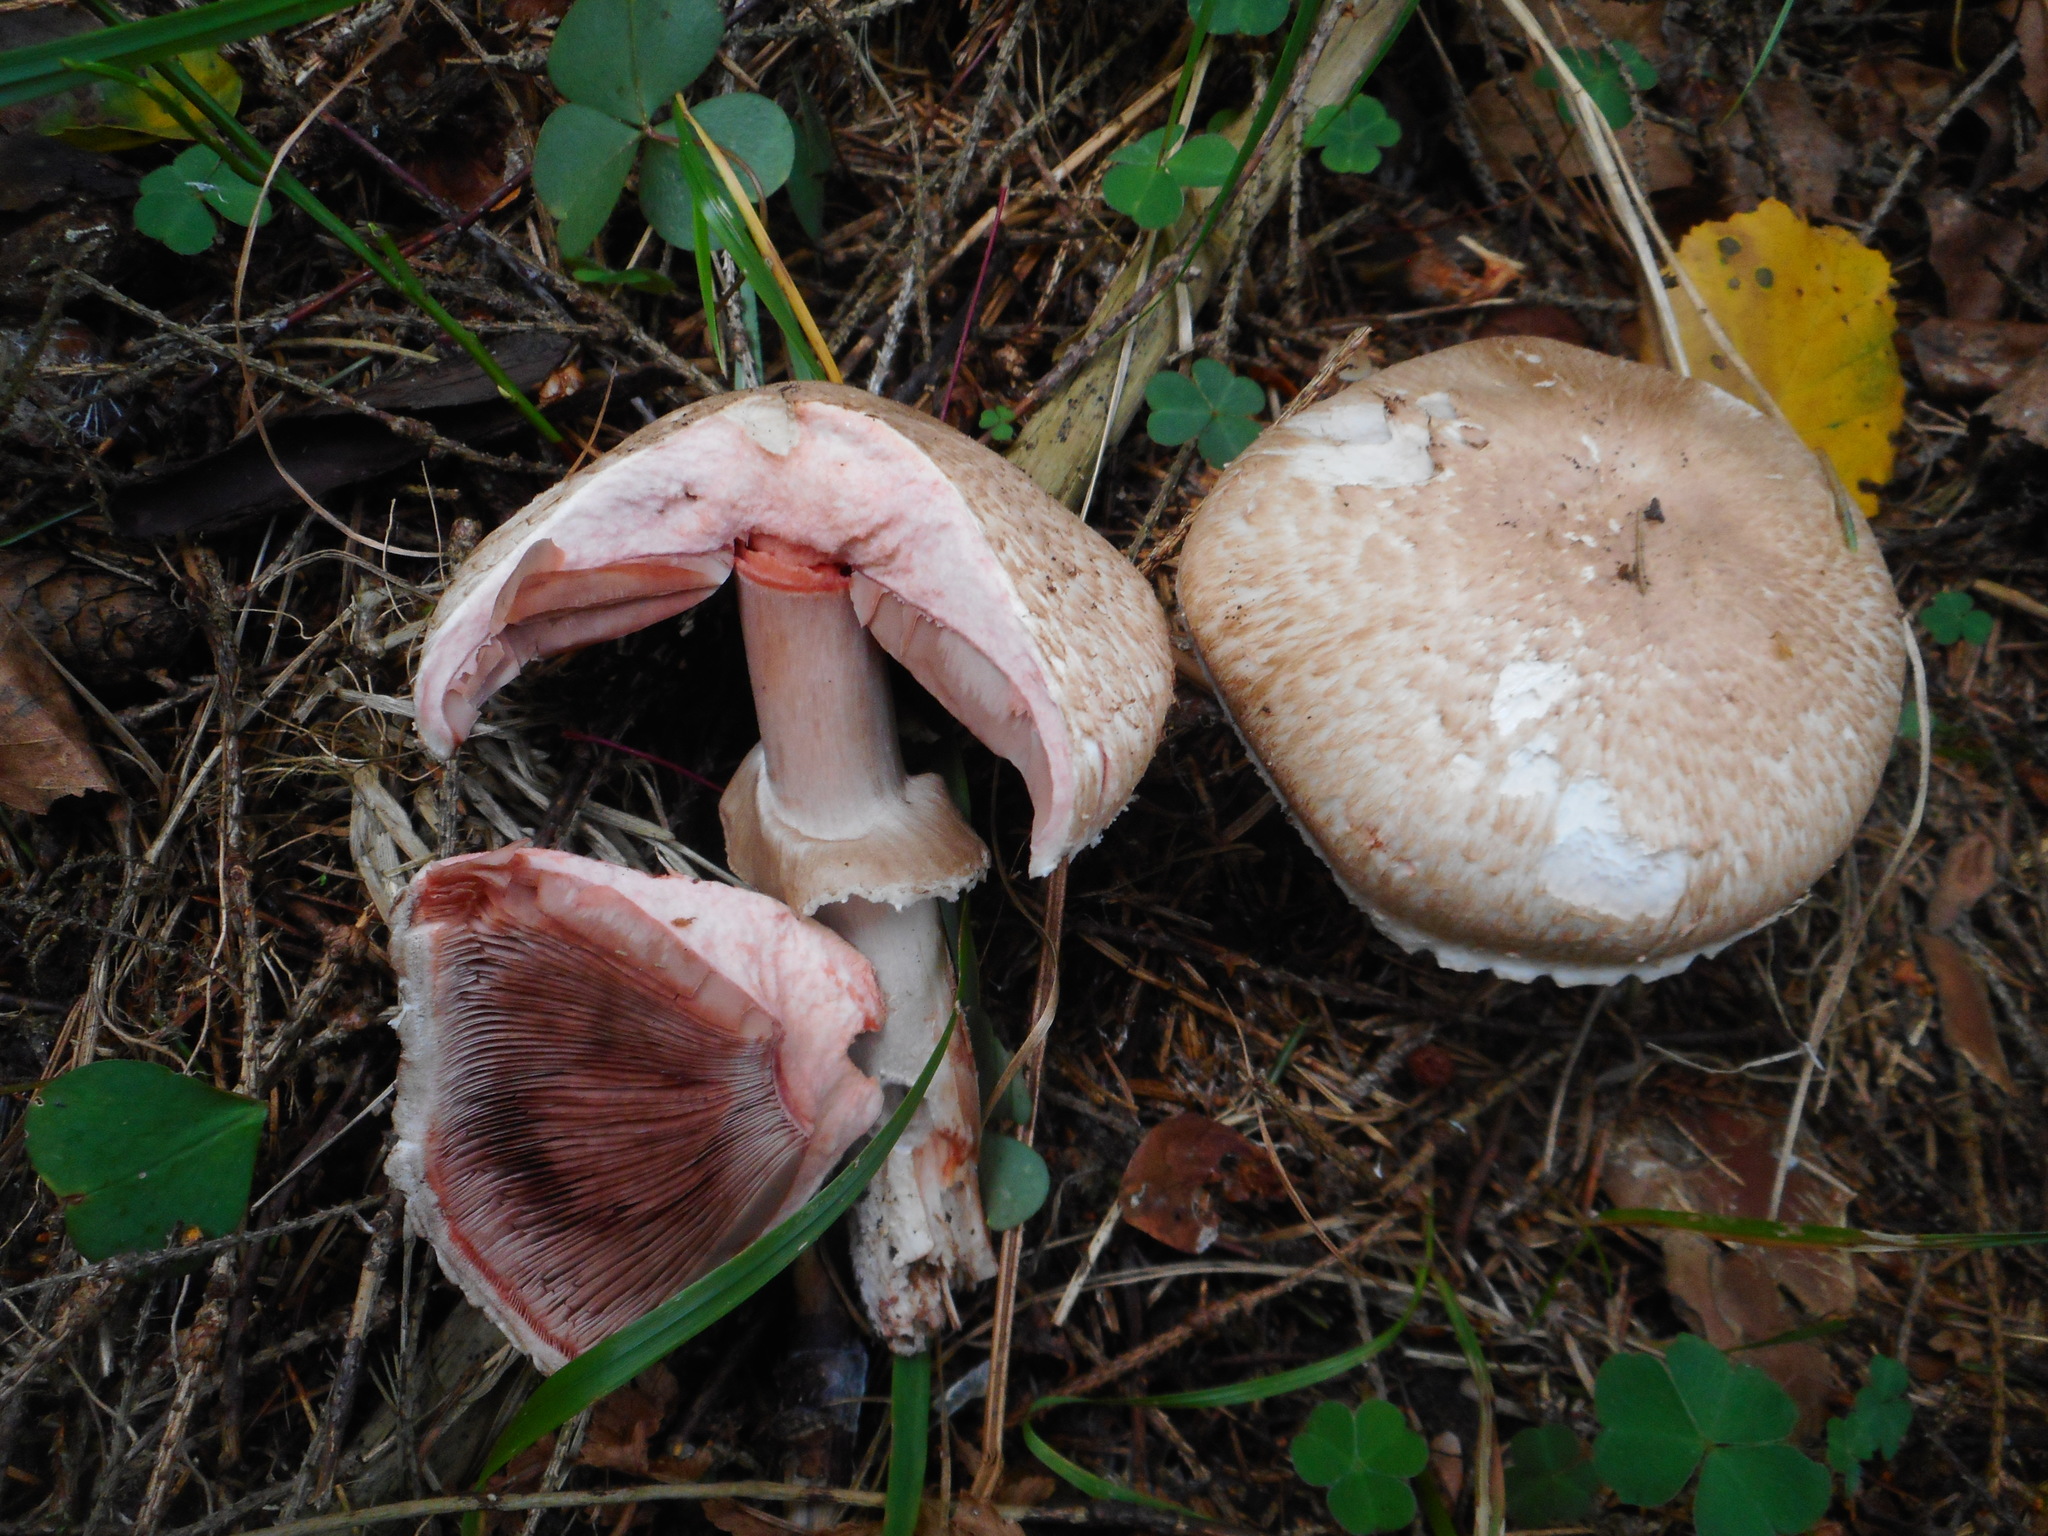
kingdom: Fungi
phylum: Basidiomycota
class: Agaricomycetes
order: Agaricales
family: Agaricaceae
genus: Agaricus
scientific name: Agaricus sylvaticus
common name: Blushing wood mushroom
